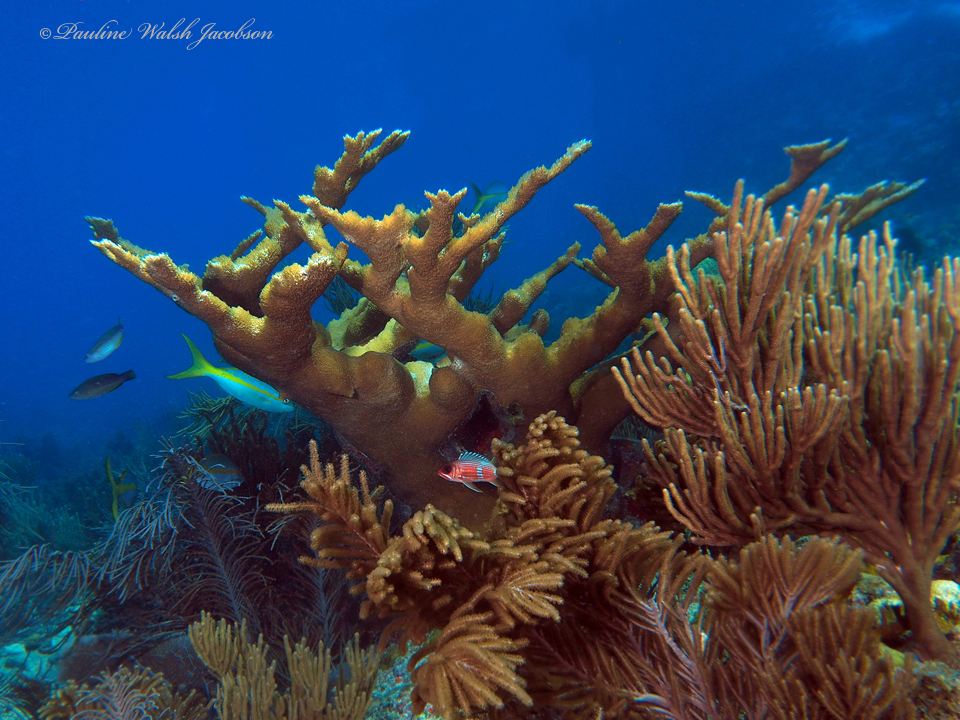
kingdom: Animalia
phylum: Cnidaria
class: Anthozoa
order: Scleractinia
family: Acroporidae
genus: Acropora
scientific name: Acropora palmata
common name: Elkhorn coral
